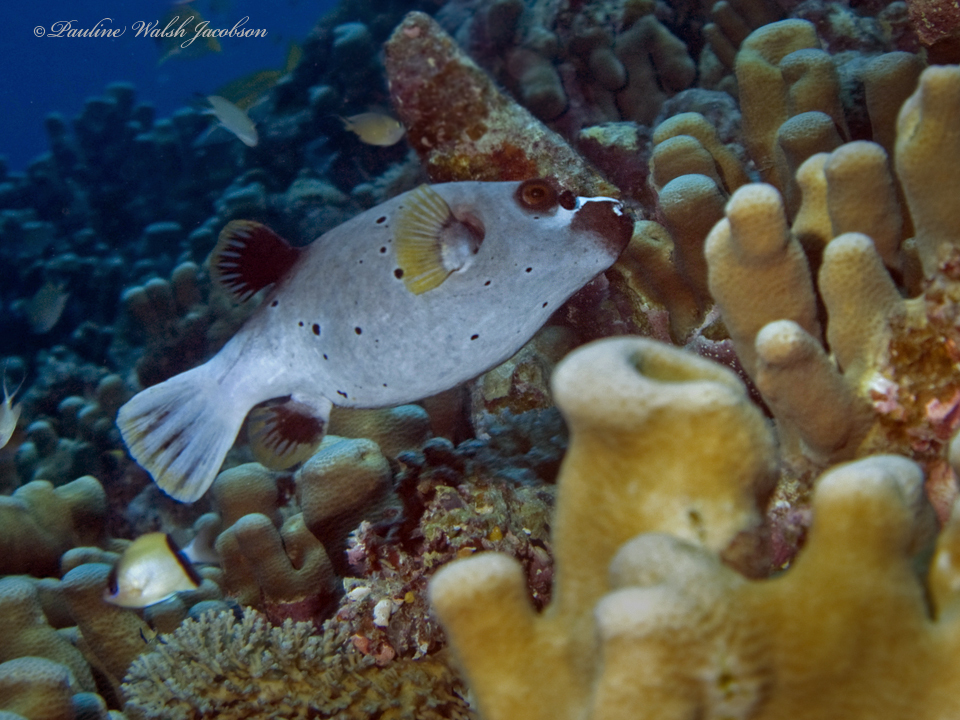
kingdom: Animalia
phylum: Chordata
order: Tetraodontiformes
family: Tetraodontidae
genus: Arothron
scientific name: Arothron nigropunctatus
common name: Black spotted blow fish
